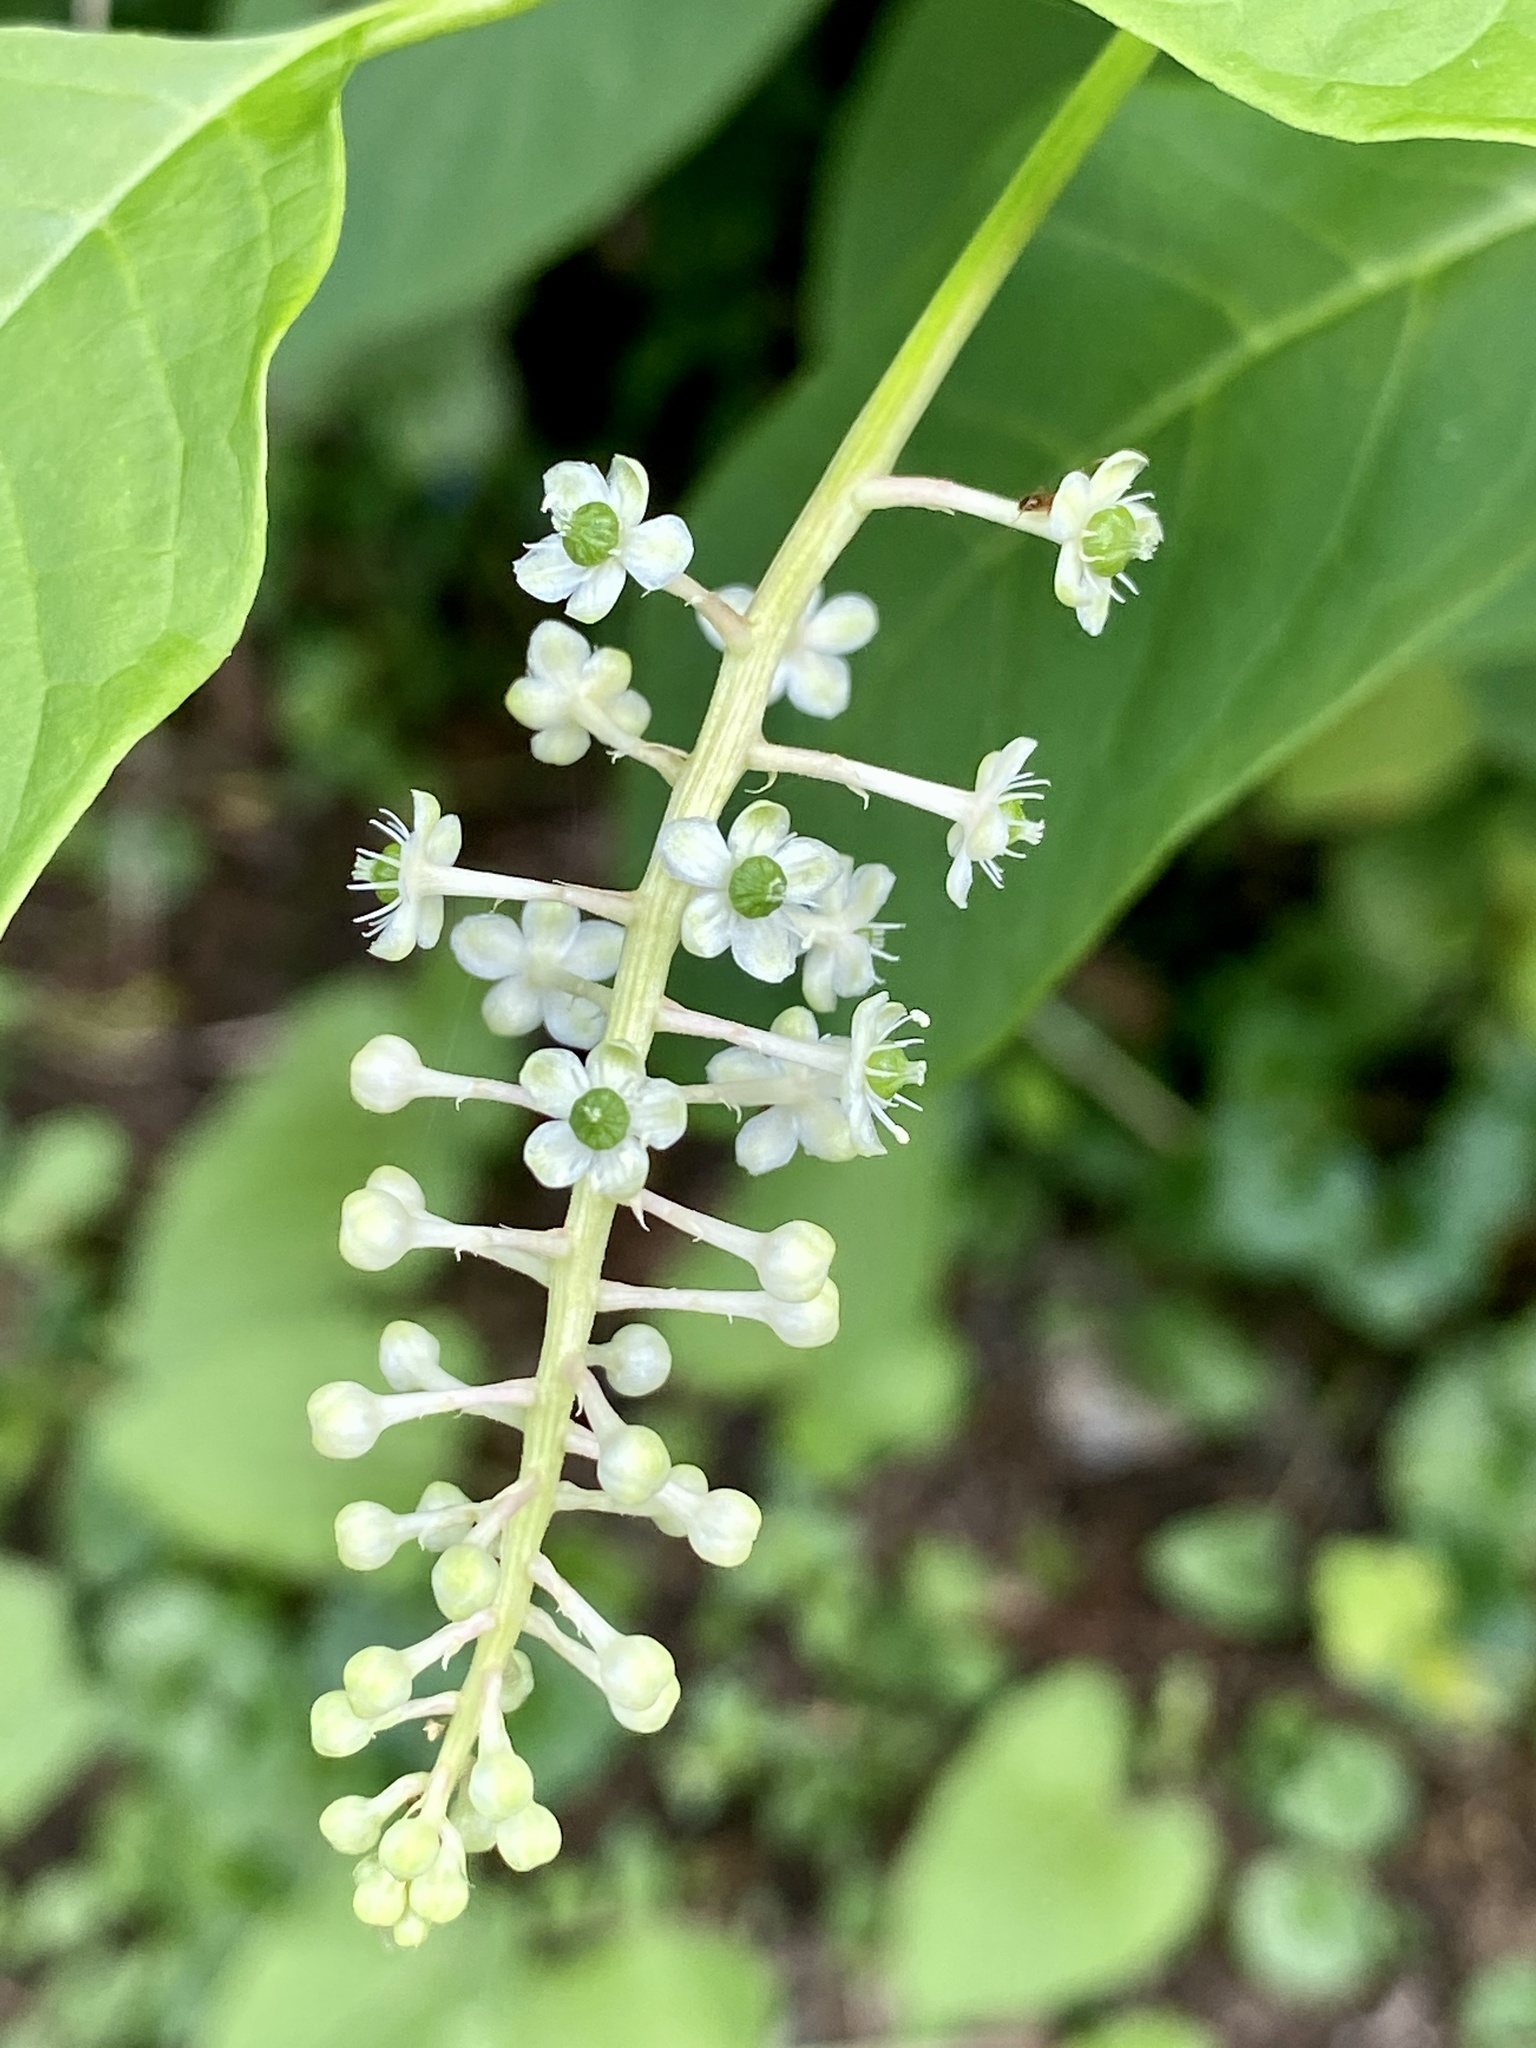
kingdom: Plantae
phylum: Tracheophyta
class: Magnoliopsida
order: Caryophyllales
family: Phytolaccaceae
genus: Phytolacca
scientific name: Phytolacca americana
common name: American pokeweed
